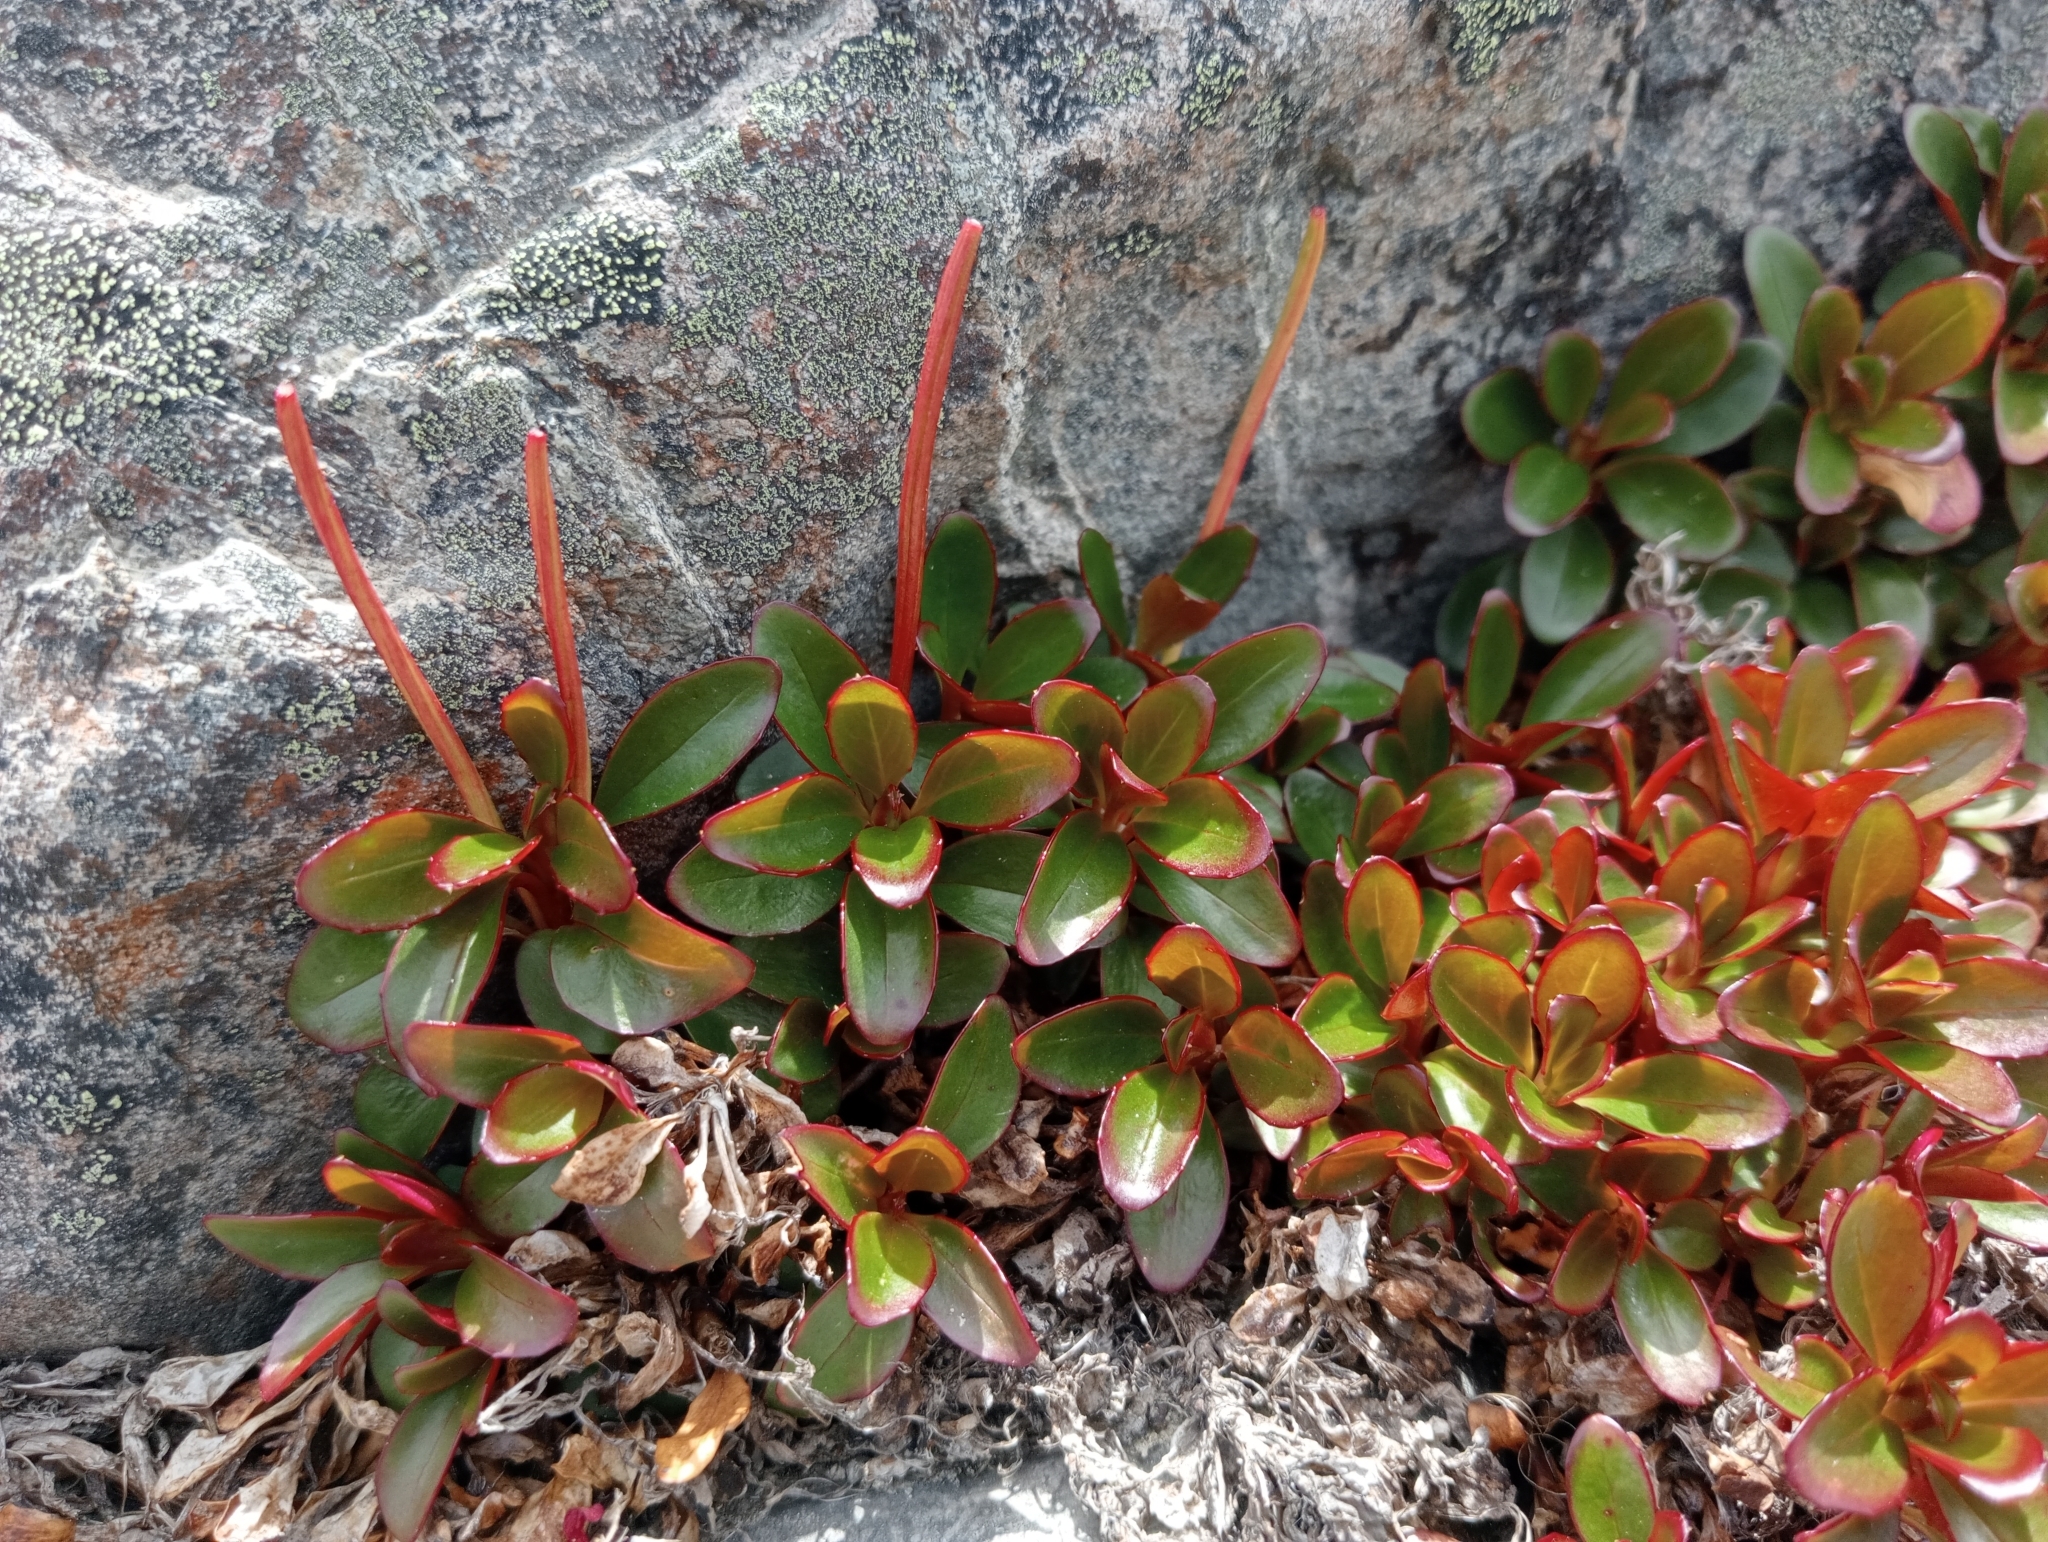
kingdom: Plantae
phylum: Tracheophyta
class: Magnoliopsida
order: Myrtales
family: Onagraceae
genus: Epilobium
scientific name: Epilobium crassum
